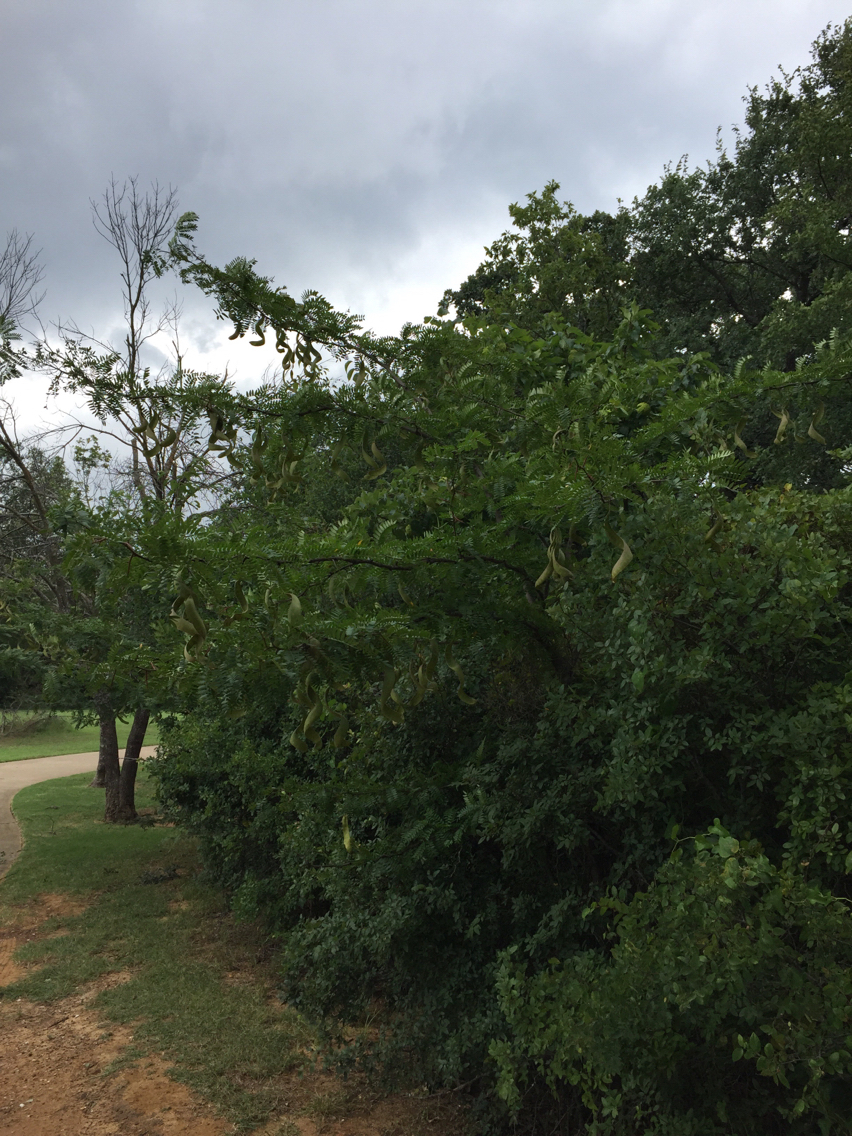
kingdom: Plantae
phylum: Tracheophyta
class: Magnoliopsida
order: Fabales
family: Fabaceae
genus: Gleditsia
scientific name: Gleditsia triacanthos
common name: Common honeylocust
